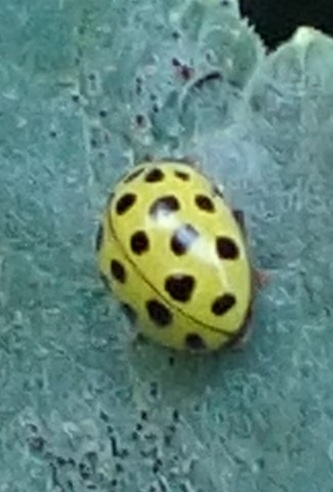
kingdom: Animalia
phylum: Arthropoda
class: Insecta
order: Coleoptera
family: Coccinellidae
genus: Psyllobora
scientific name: Psyllobora vigintiduopunctata
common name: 22-spot ladybird
